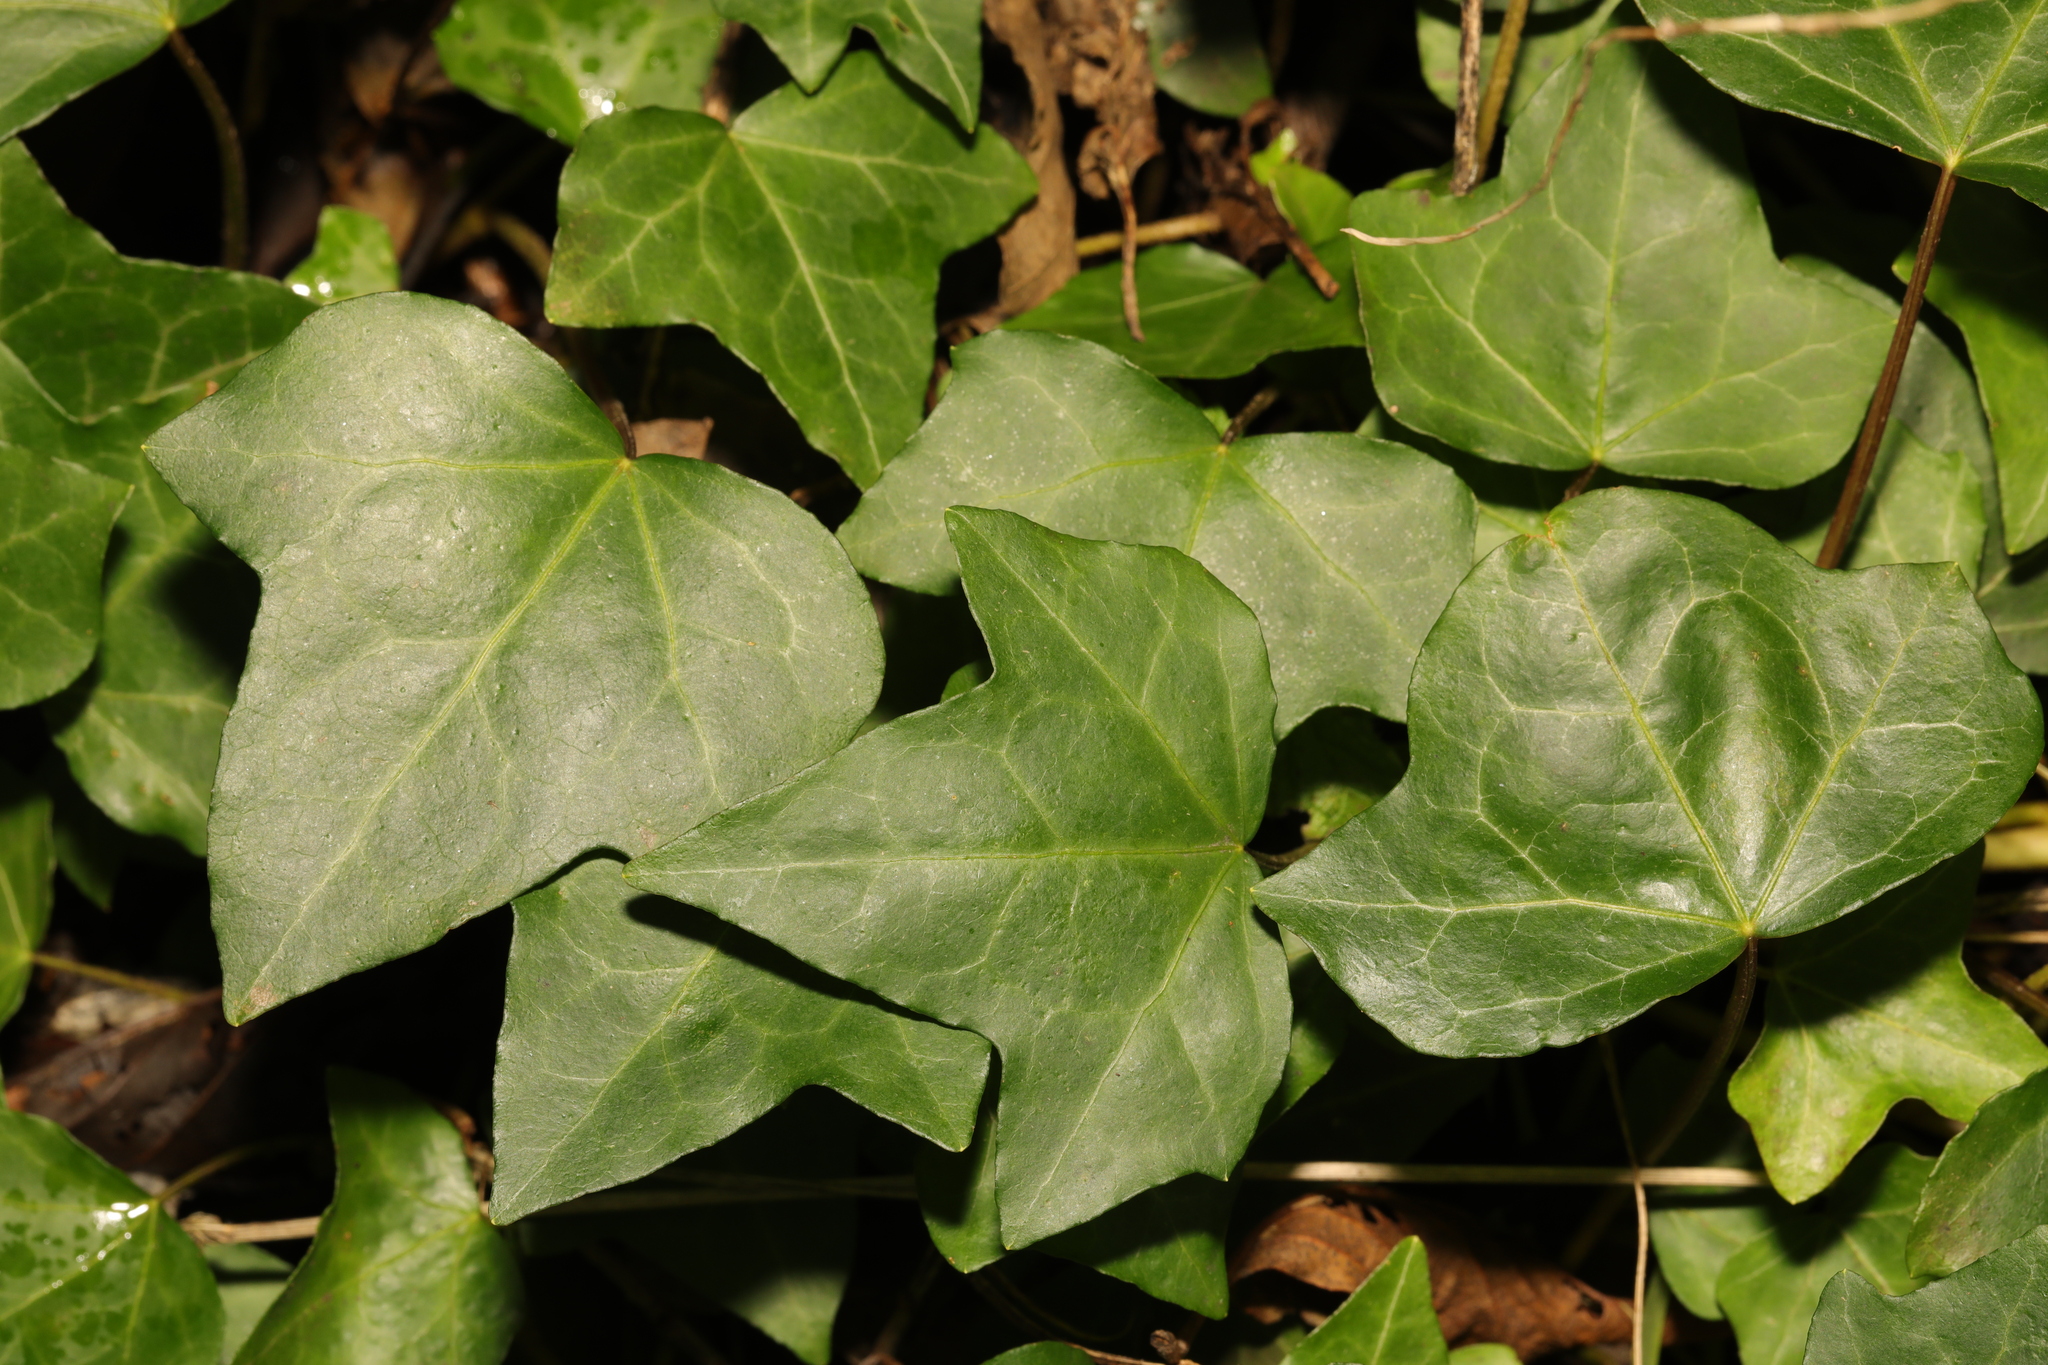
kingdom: Plantae
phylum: Tracheophyta
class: Magnoliopsida
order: Apiales
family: Araliaceae
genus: Hedera
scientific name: Hedera helix
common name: Ivy
